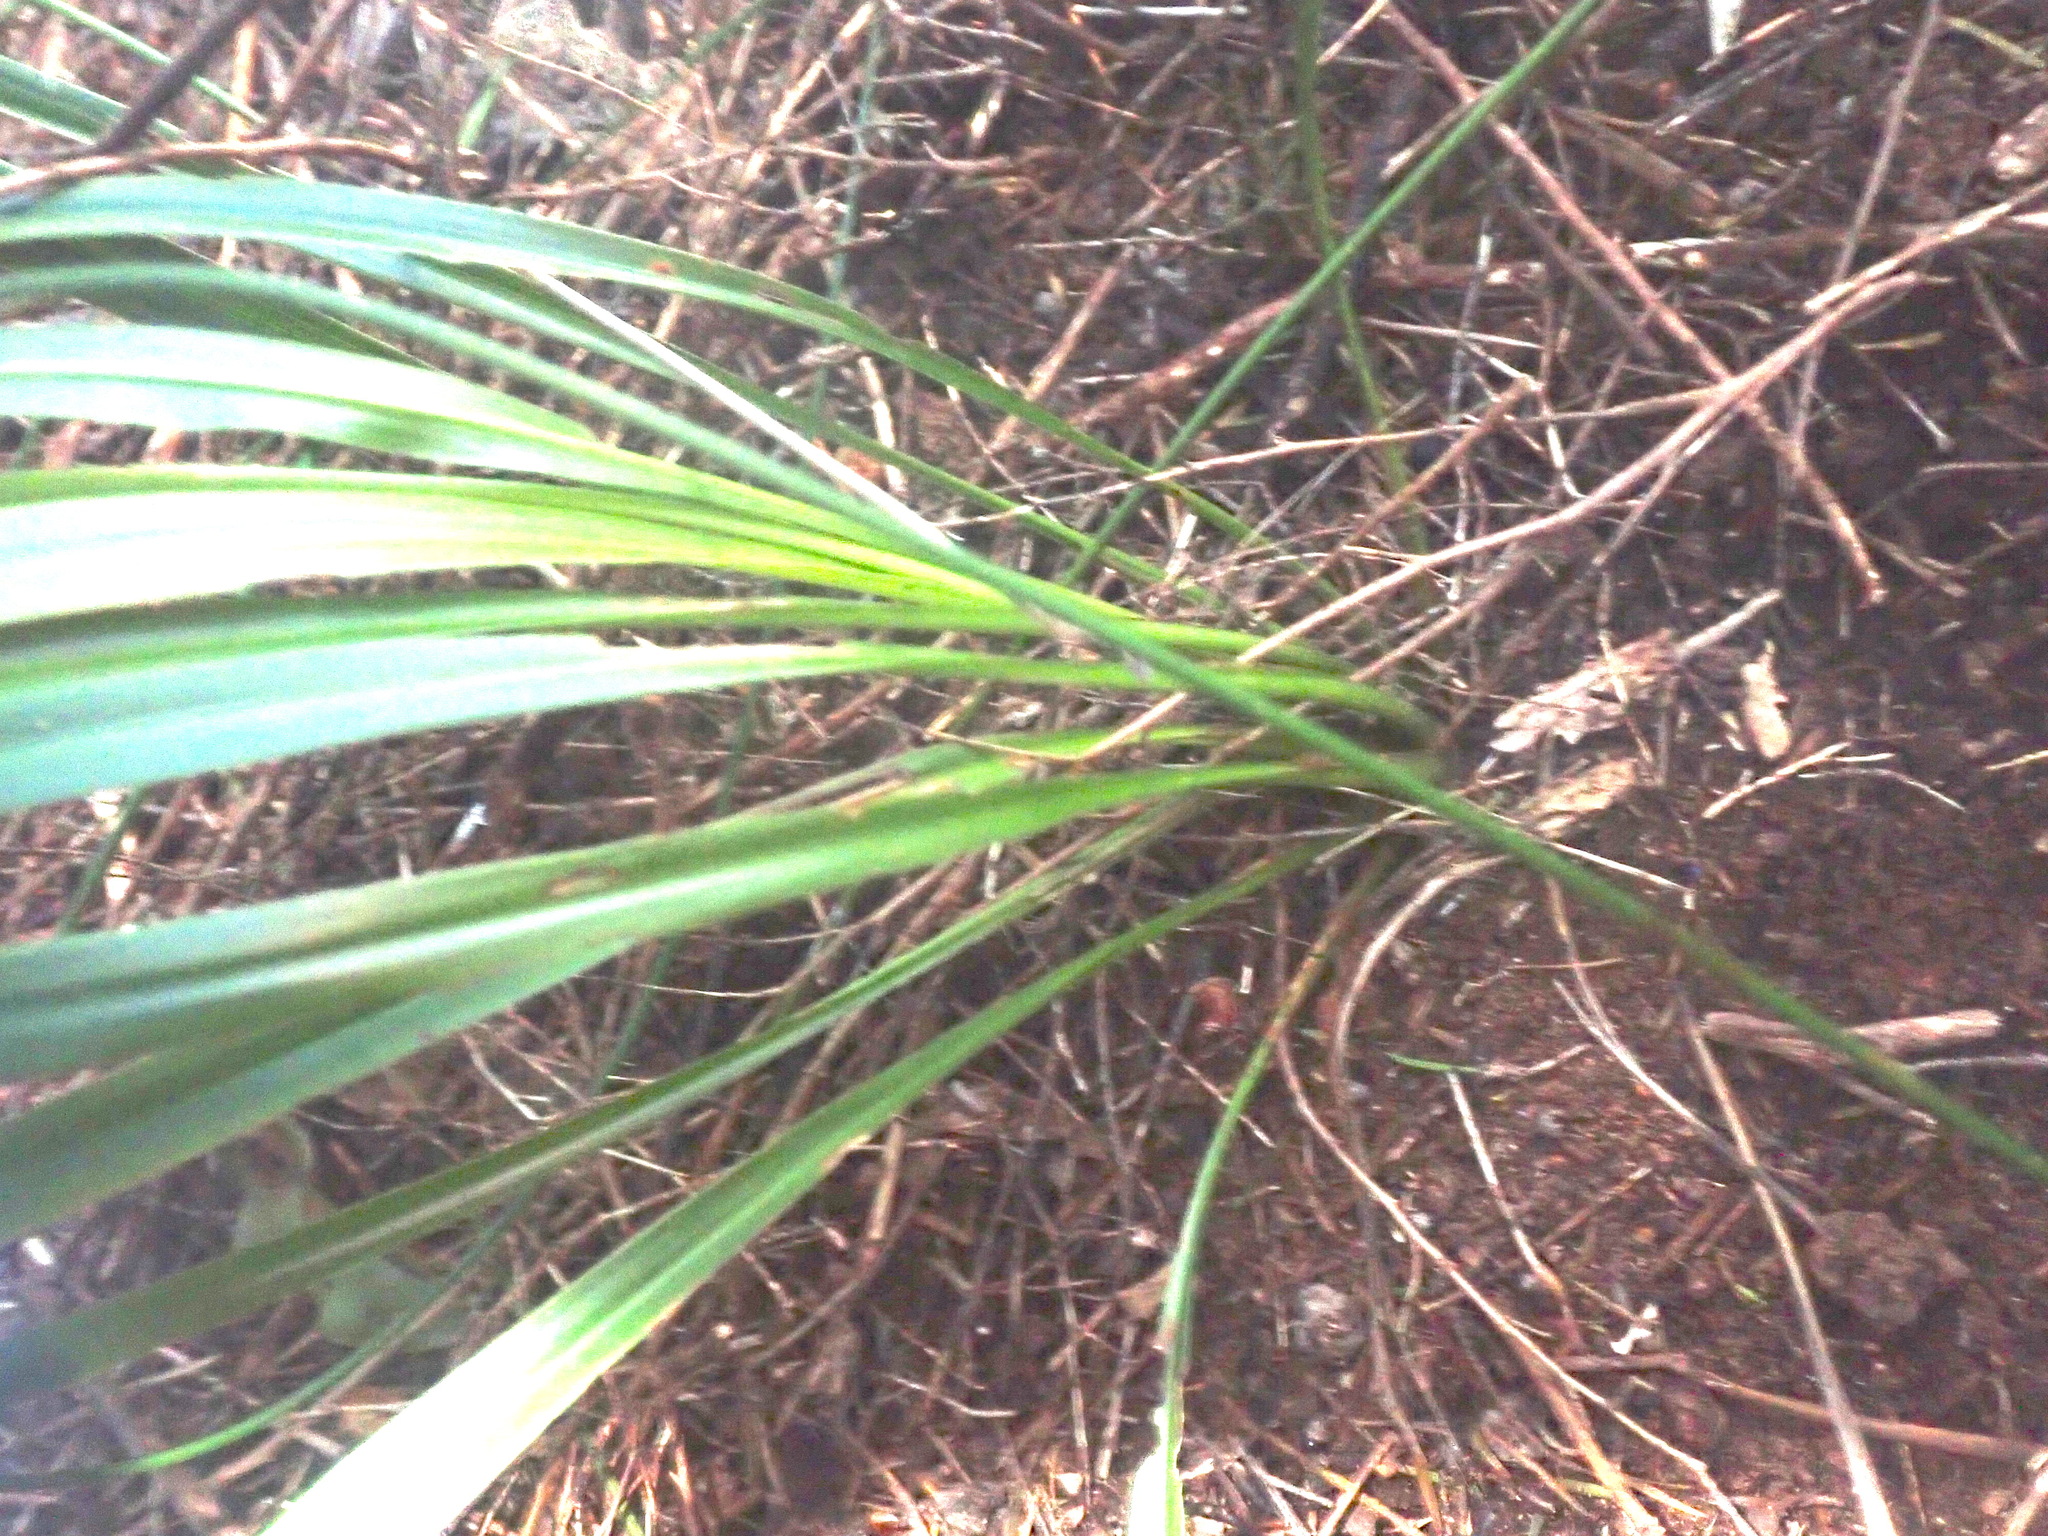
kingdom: Plantae
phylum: Tracheophyta
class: Liliopsida
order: Asparagales
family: Asparagaceae
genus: Cordyline
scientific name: Cordyline pumilio
